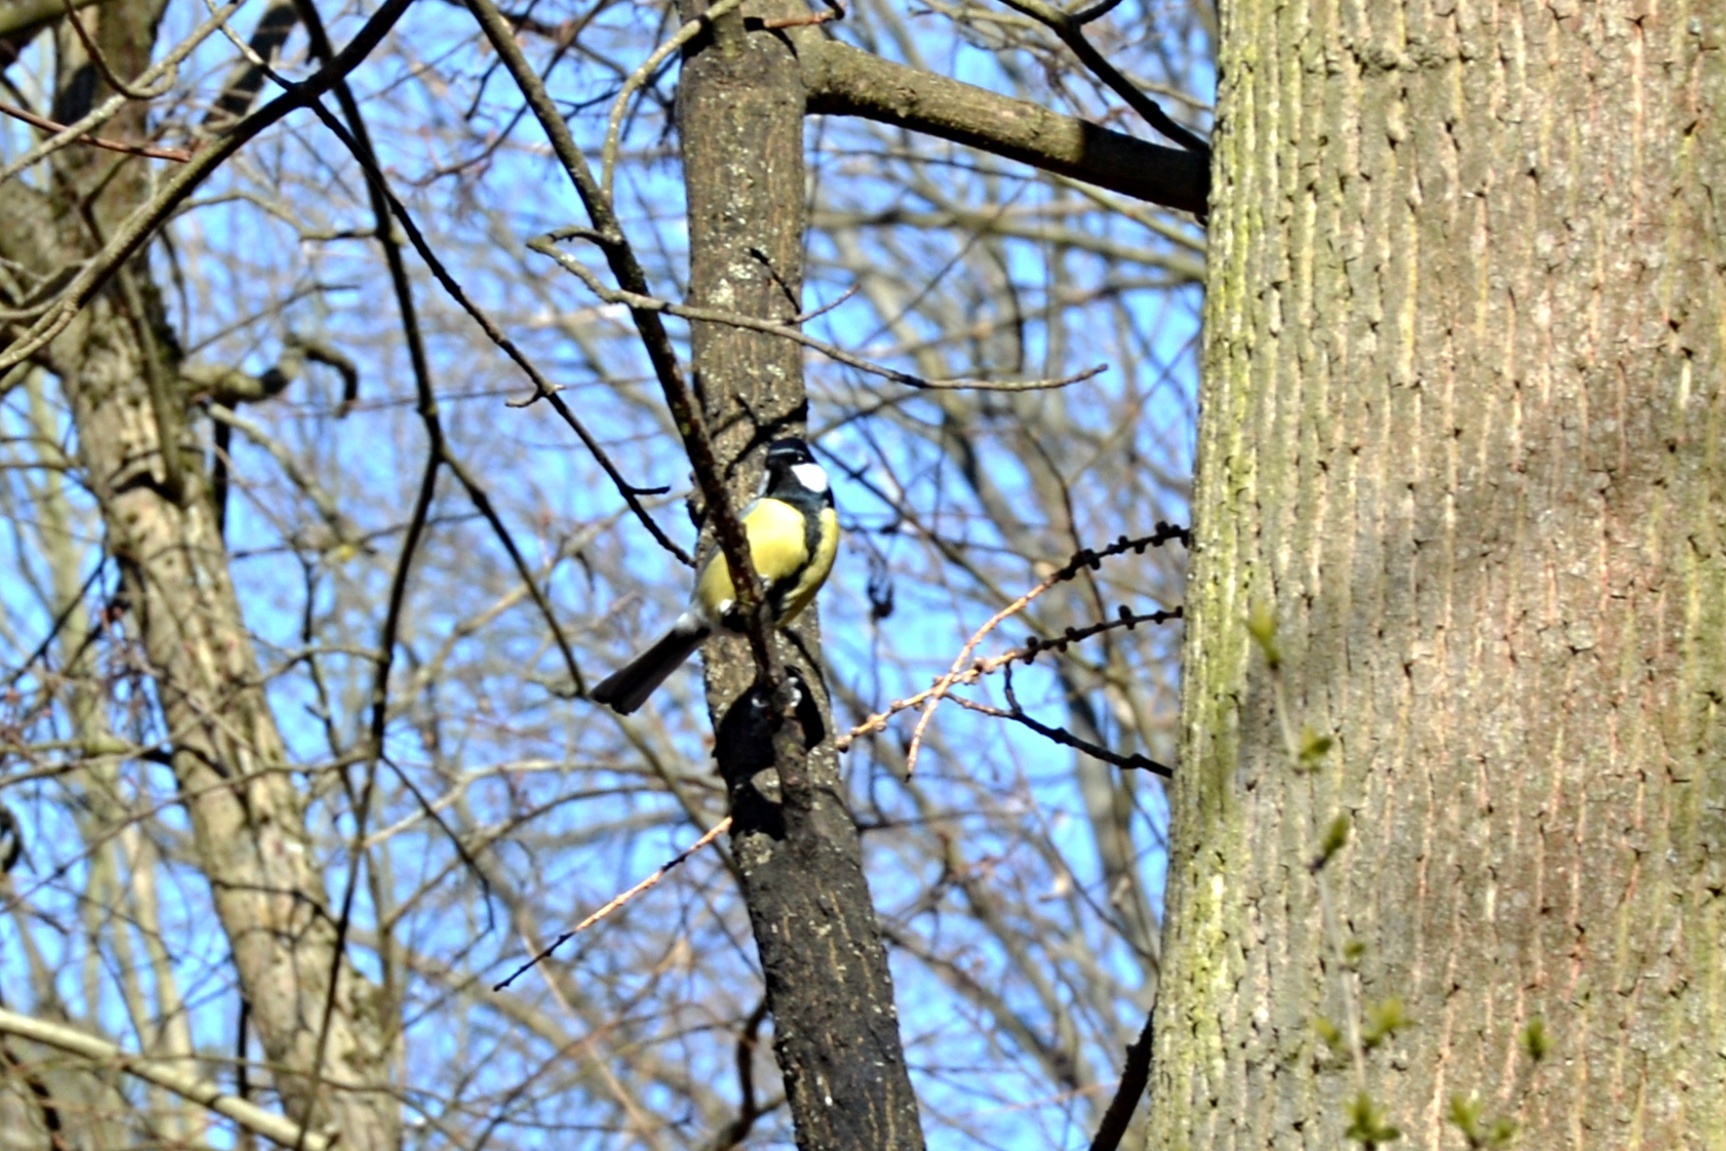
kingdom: Animalia
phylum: Chordata
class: Aves
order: Passeriformes
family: Paridae
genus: Parus
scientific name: Parus major
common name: Great tit
